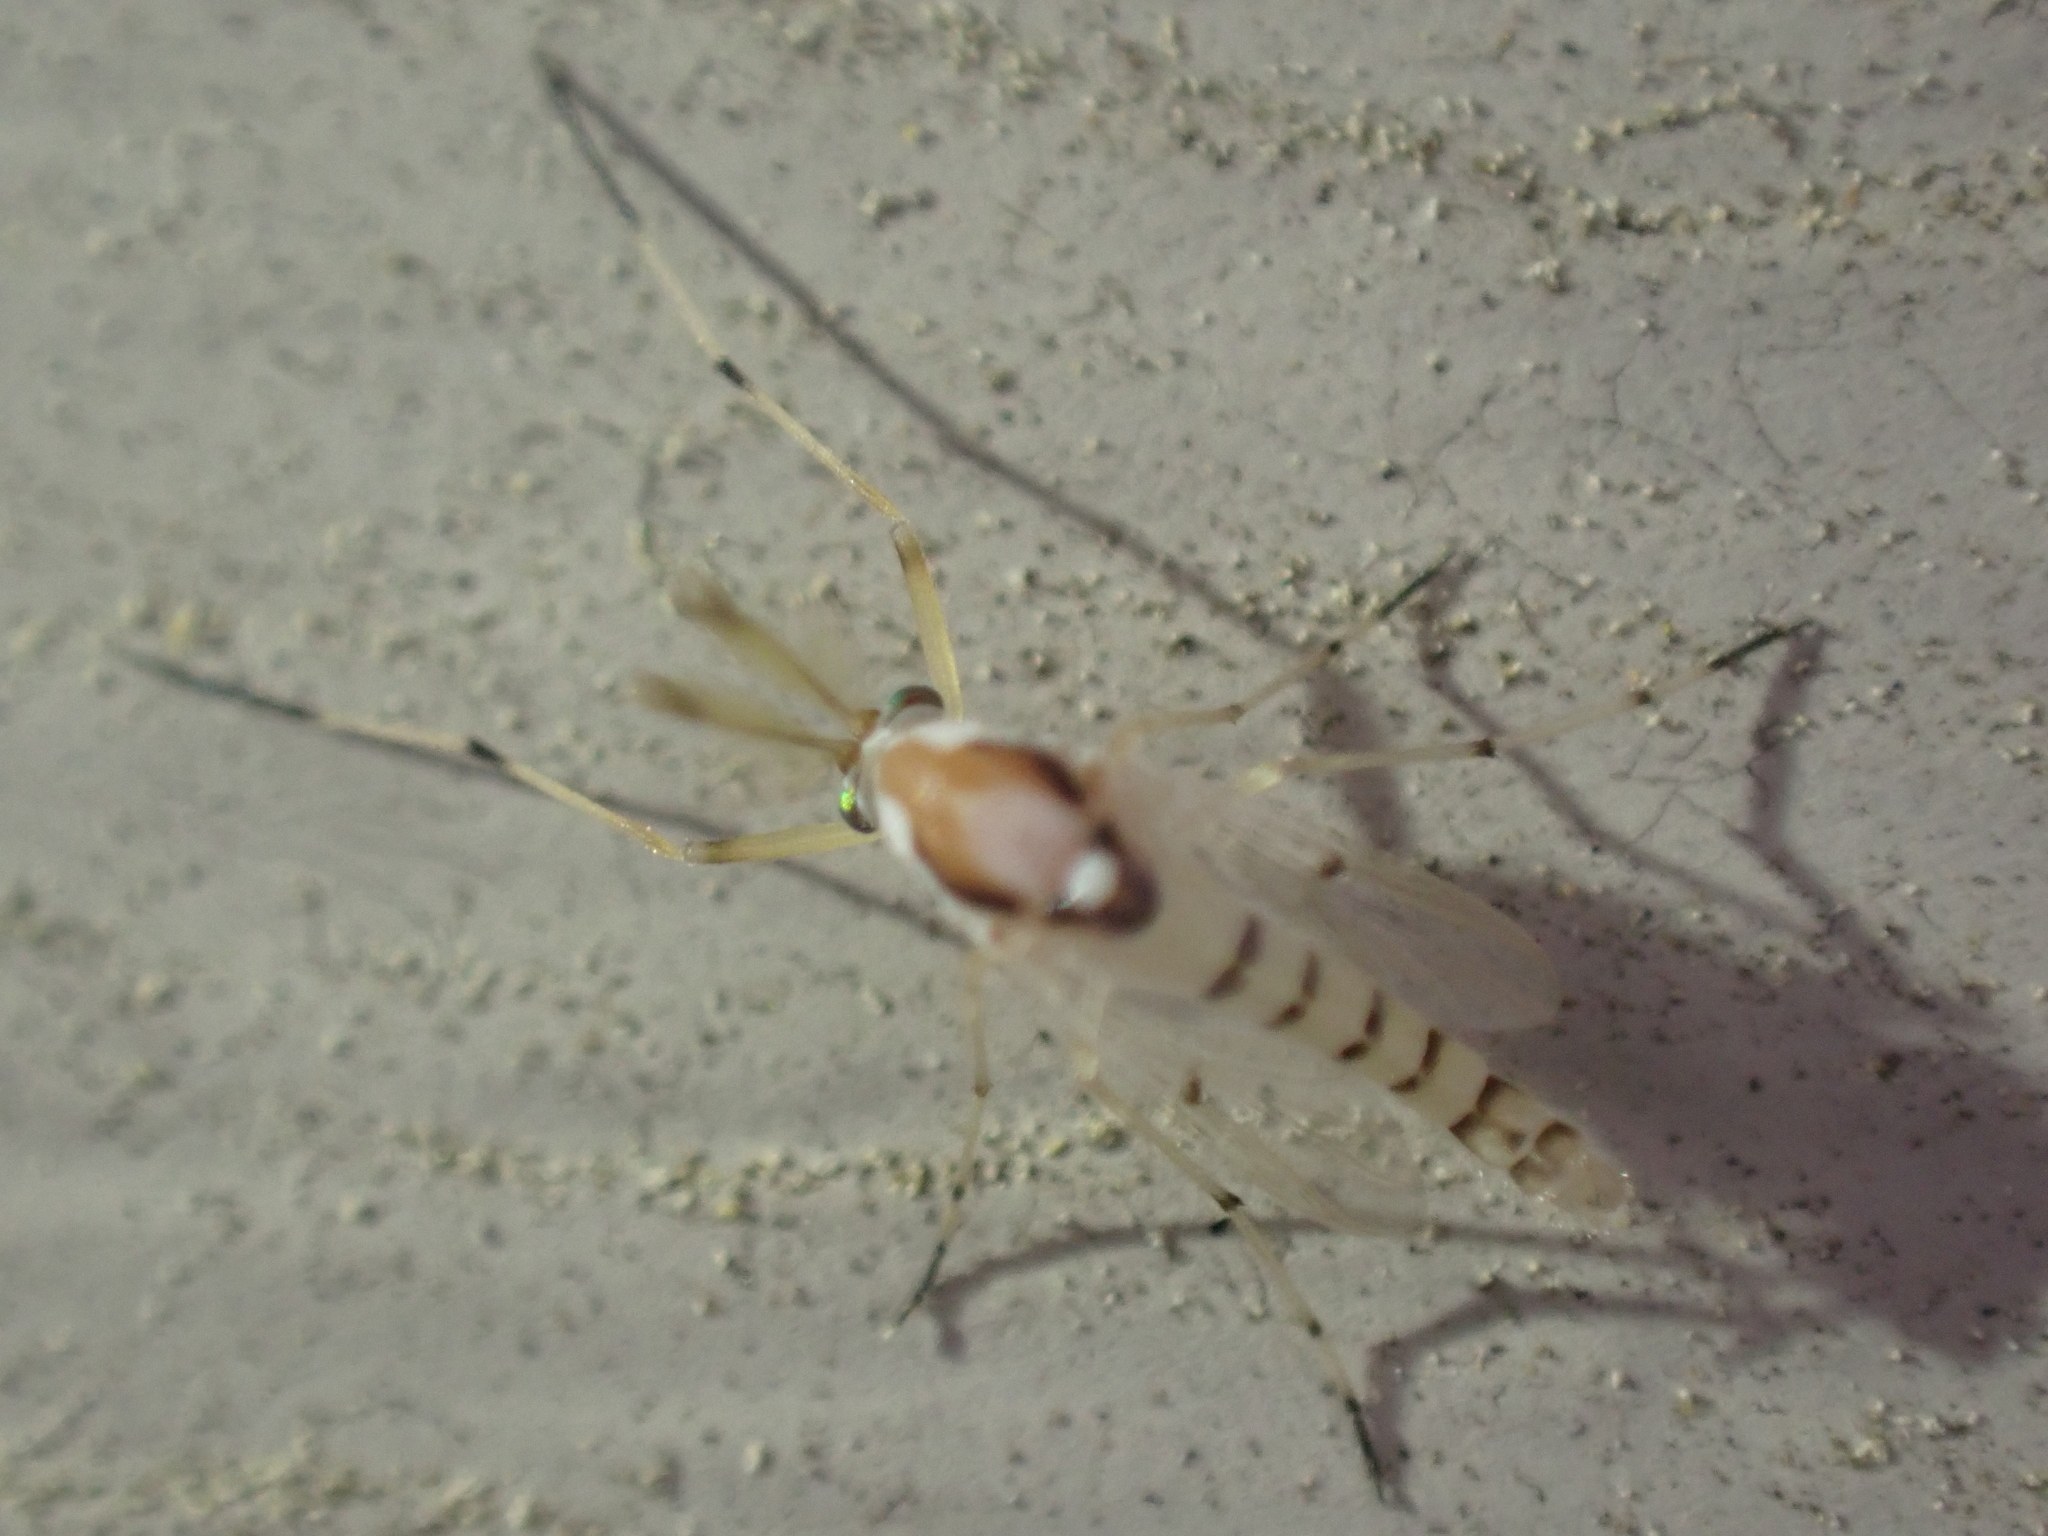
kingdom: Animalia
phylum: Arthropoda
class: Insecta
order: Diptera
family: Chironomidae
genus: Coelotanypus
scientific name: Coelotanypus concinnus
